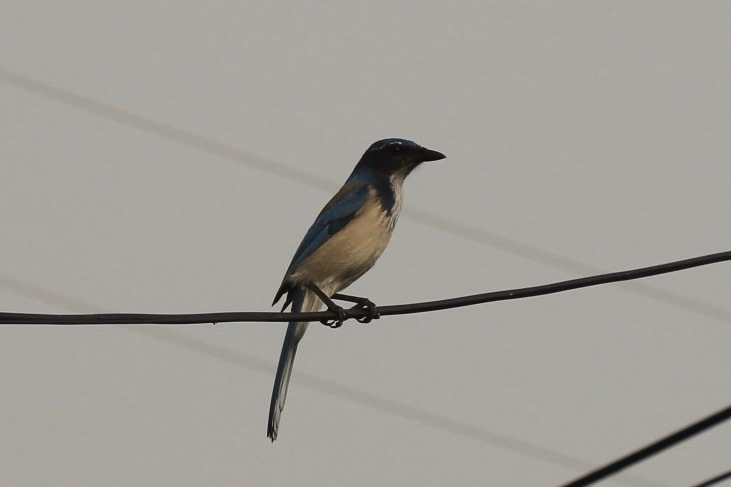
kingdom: Animalia
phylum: Chordata
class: Aves
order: Passeriformes
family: Corvidae
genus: Aphelocoma
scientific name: Aphelocoma californica
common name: California scrub-jay
